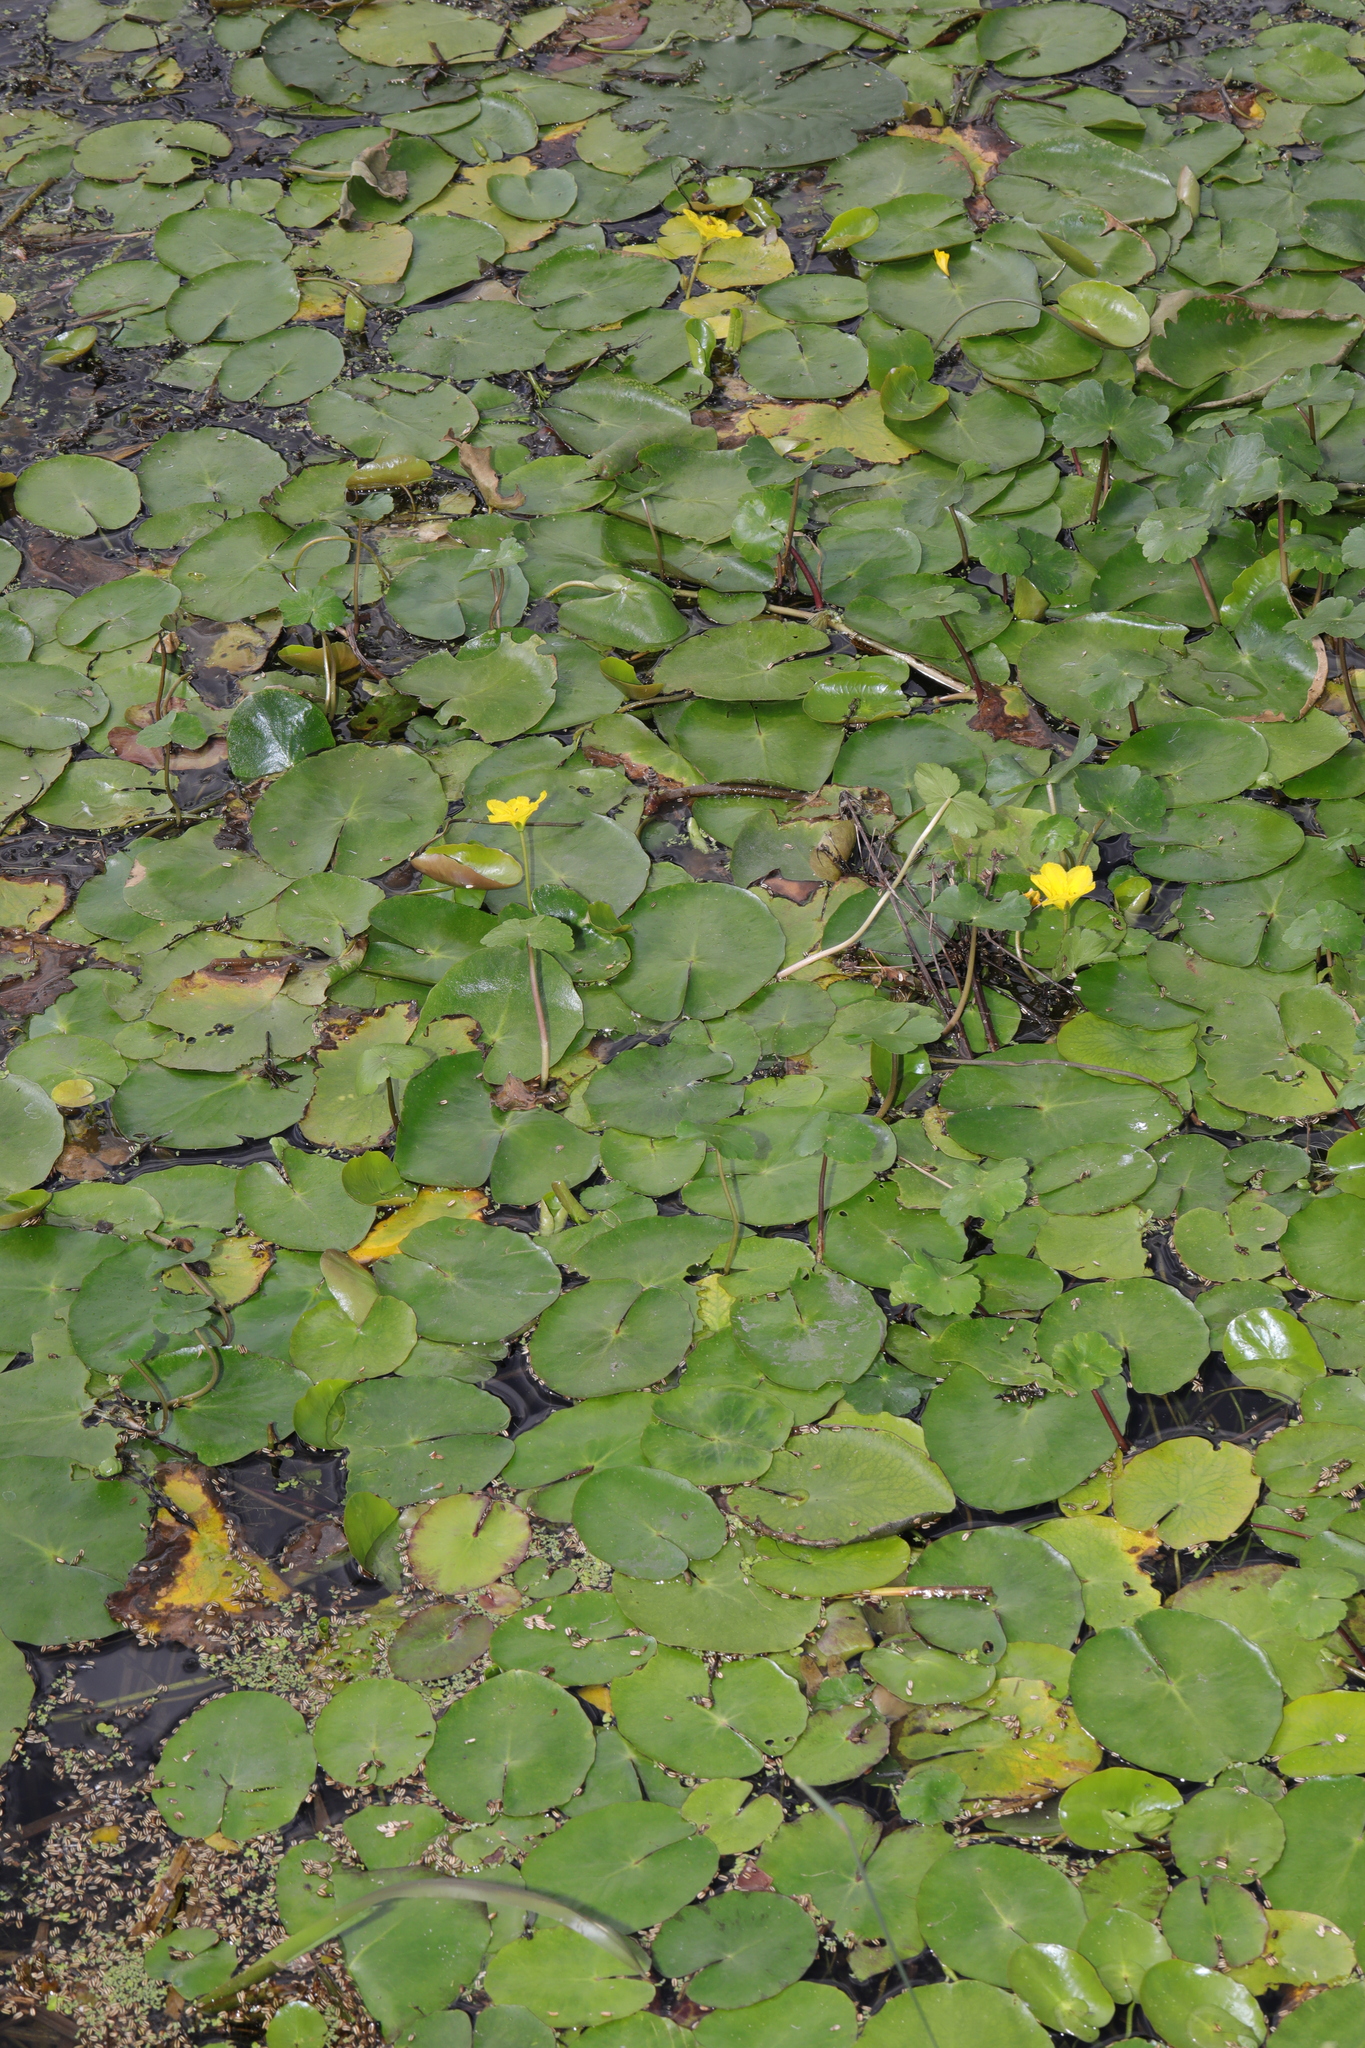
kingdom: Plantae
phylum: Tracheophyta
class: Magnoliopsida
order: Asterales
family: Menyanthaceae
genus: Nymphoides
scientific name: Nymphoides peltata
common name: Fringed water-lily
